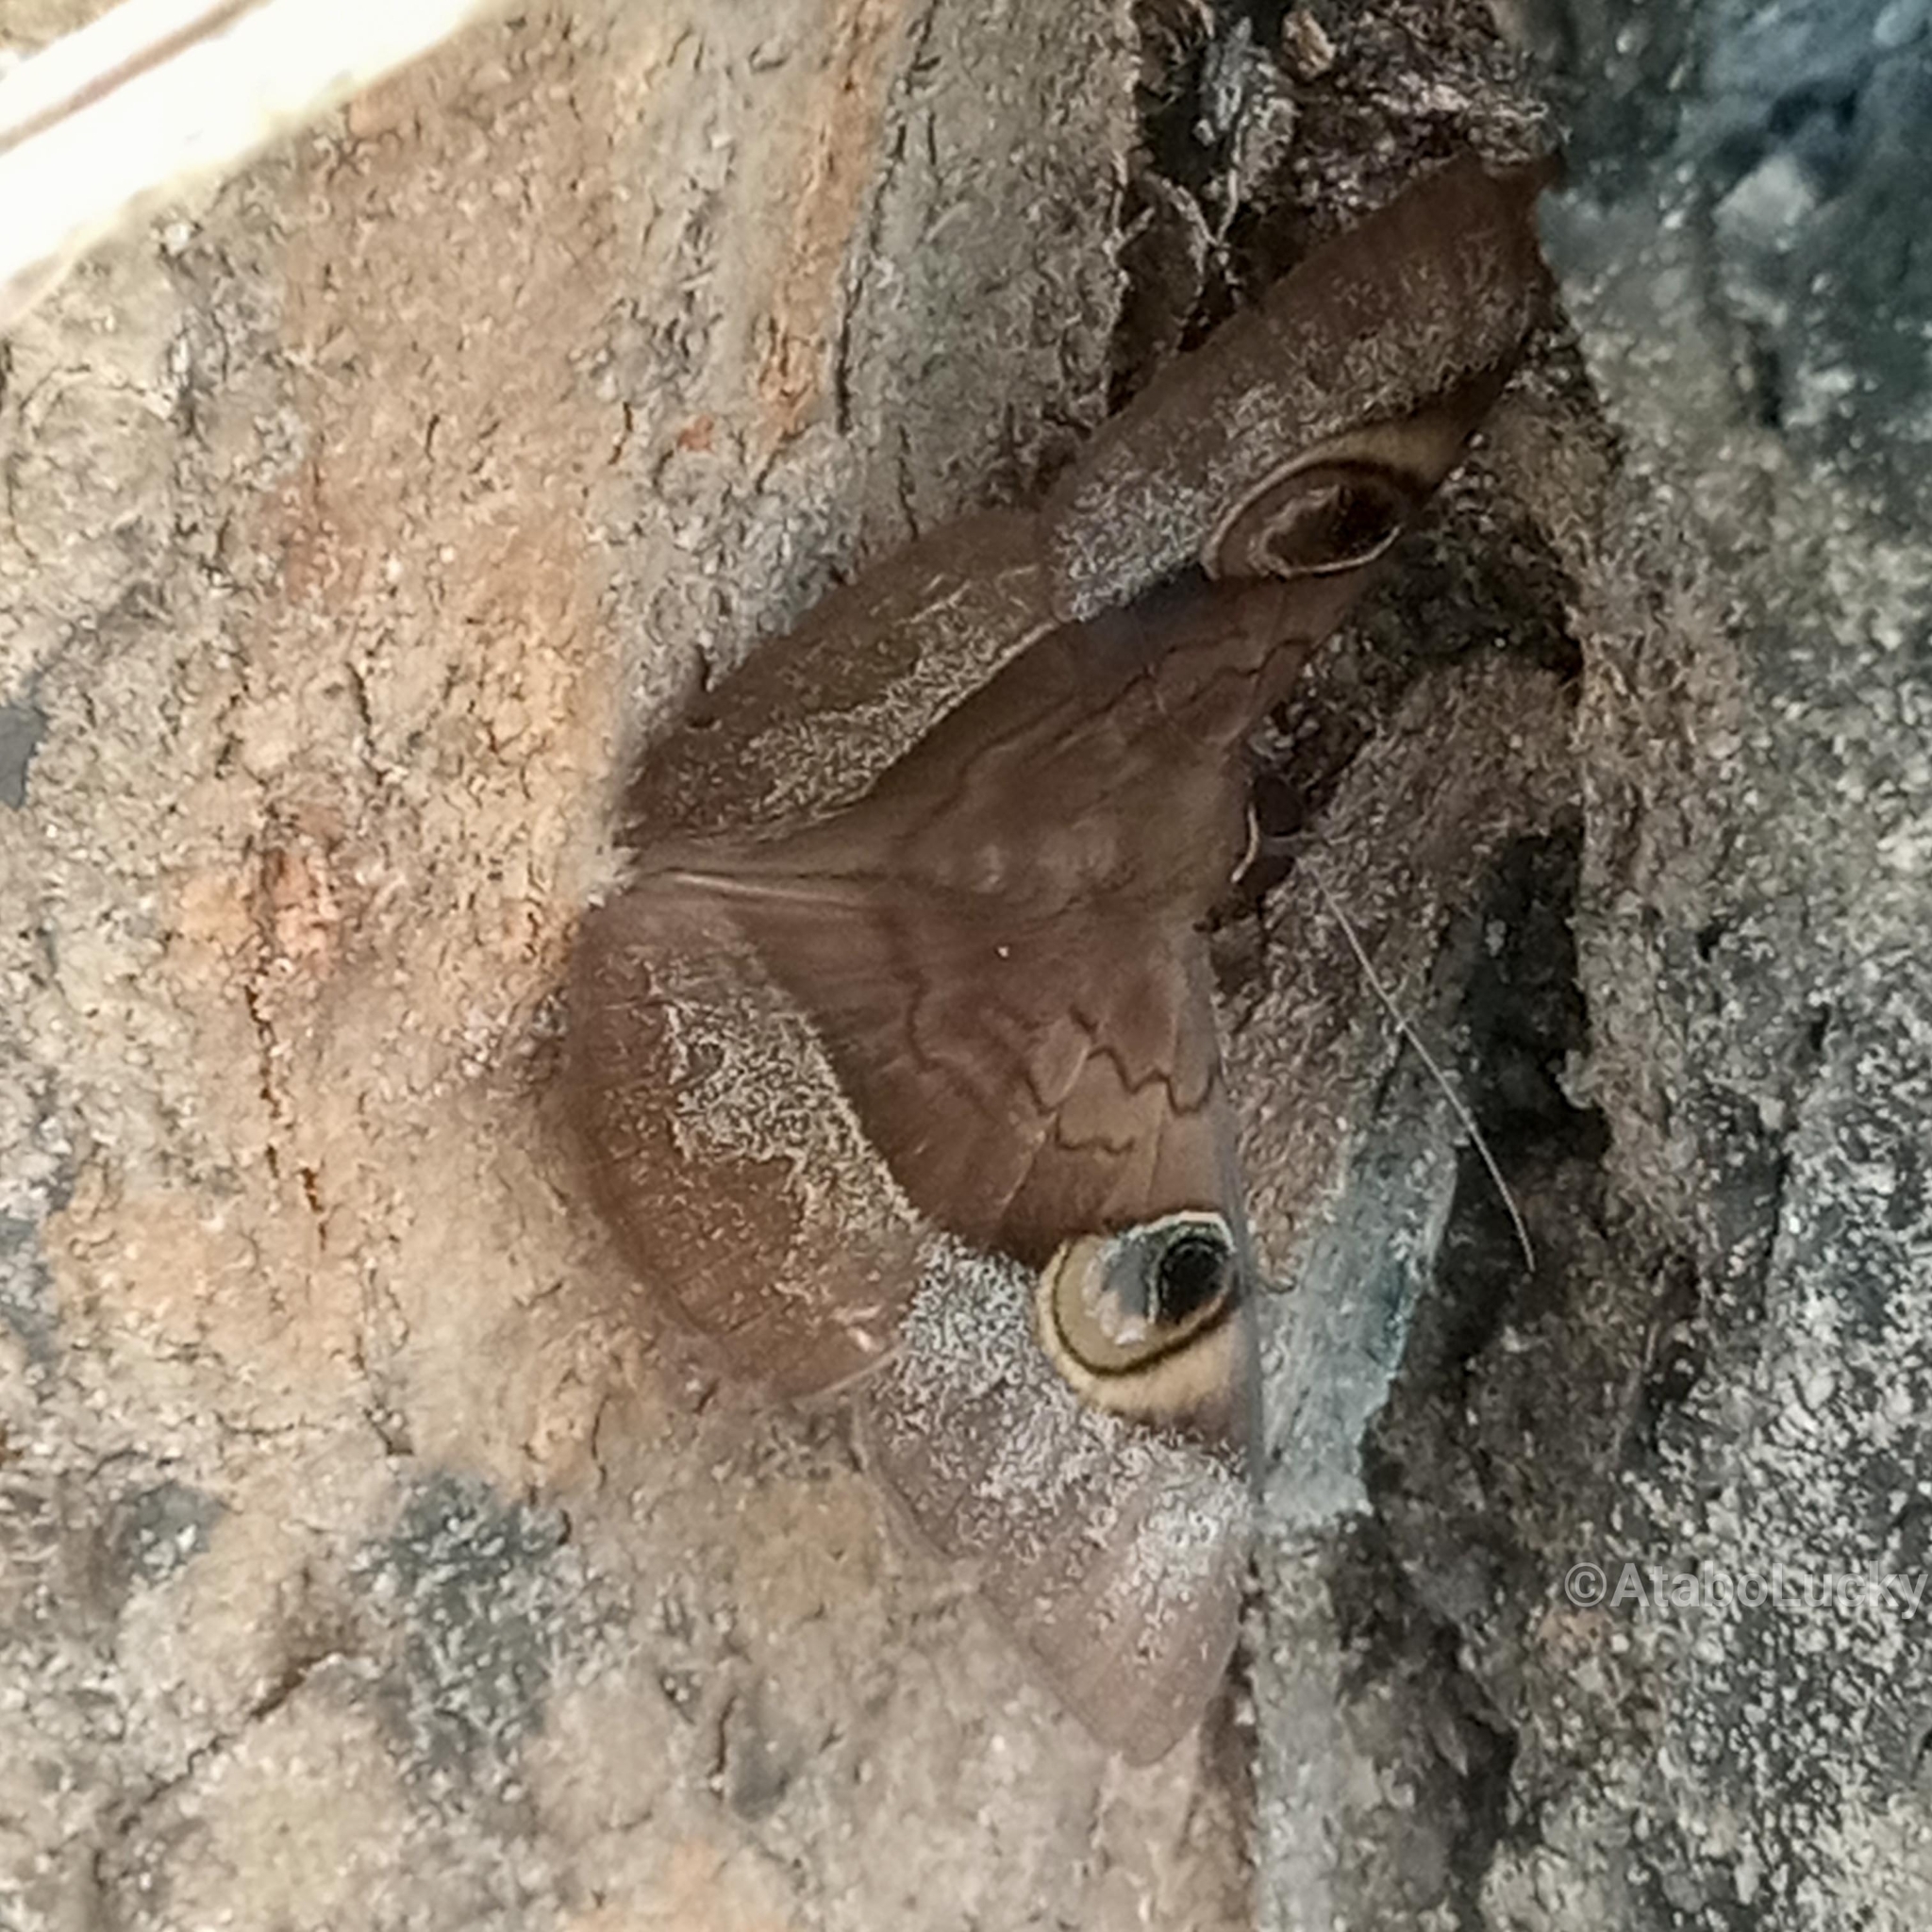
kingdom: Animalia
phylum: Arthropoda
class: Insecta
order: Lepidoptera
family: Erebidae
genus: Cyligramma
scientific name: Cyligramma fluctuosa
